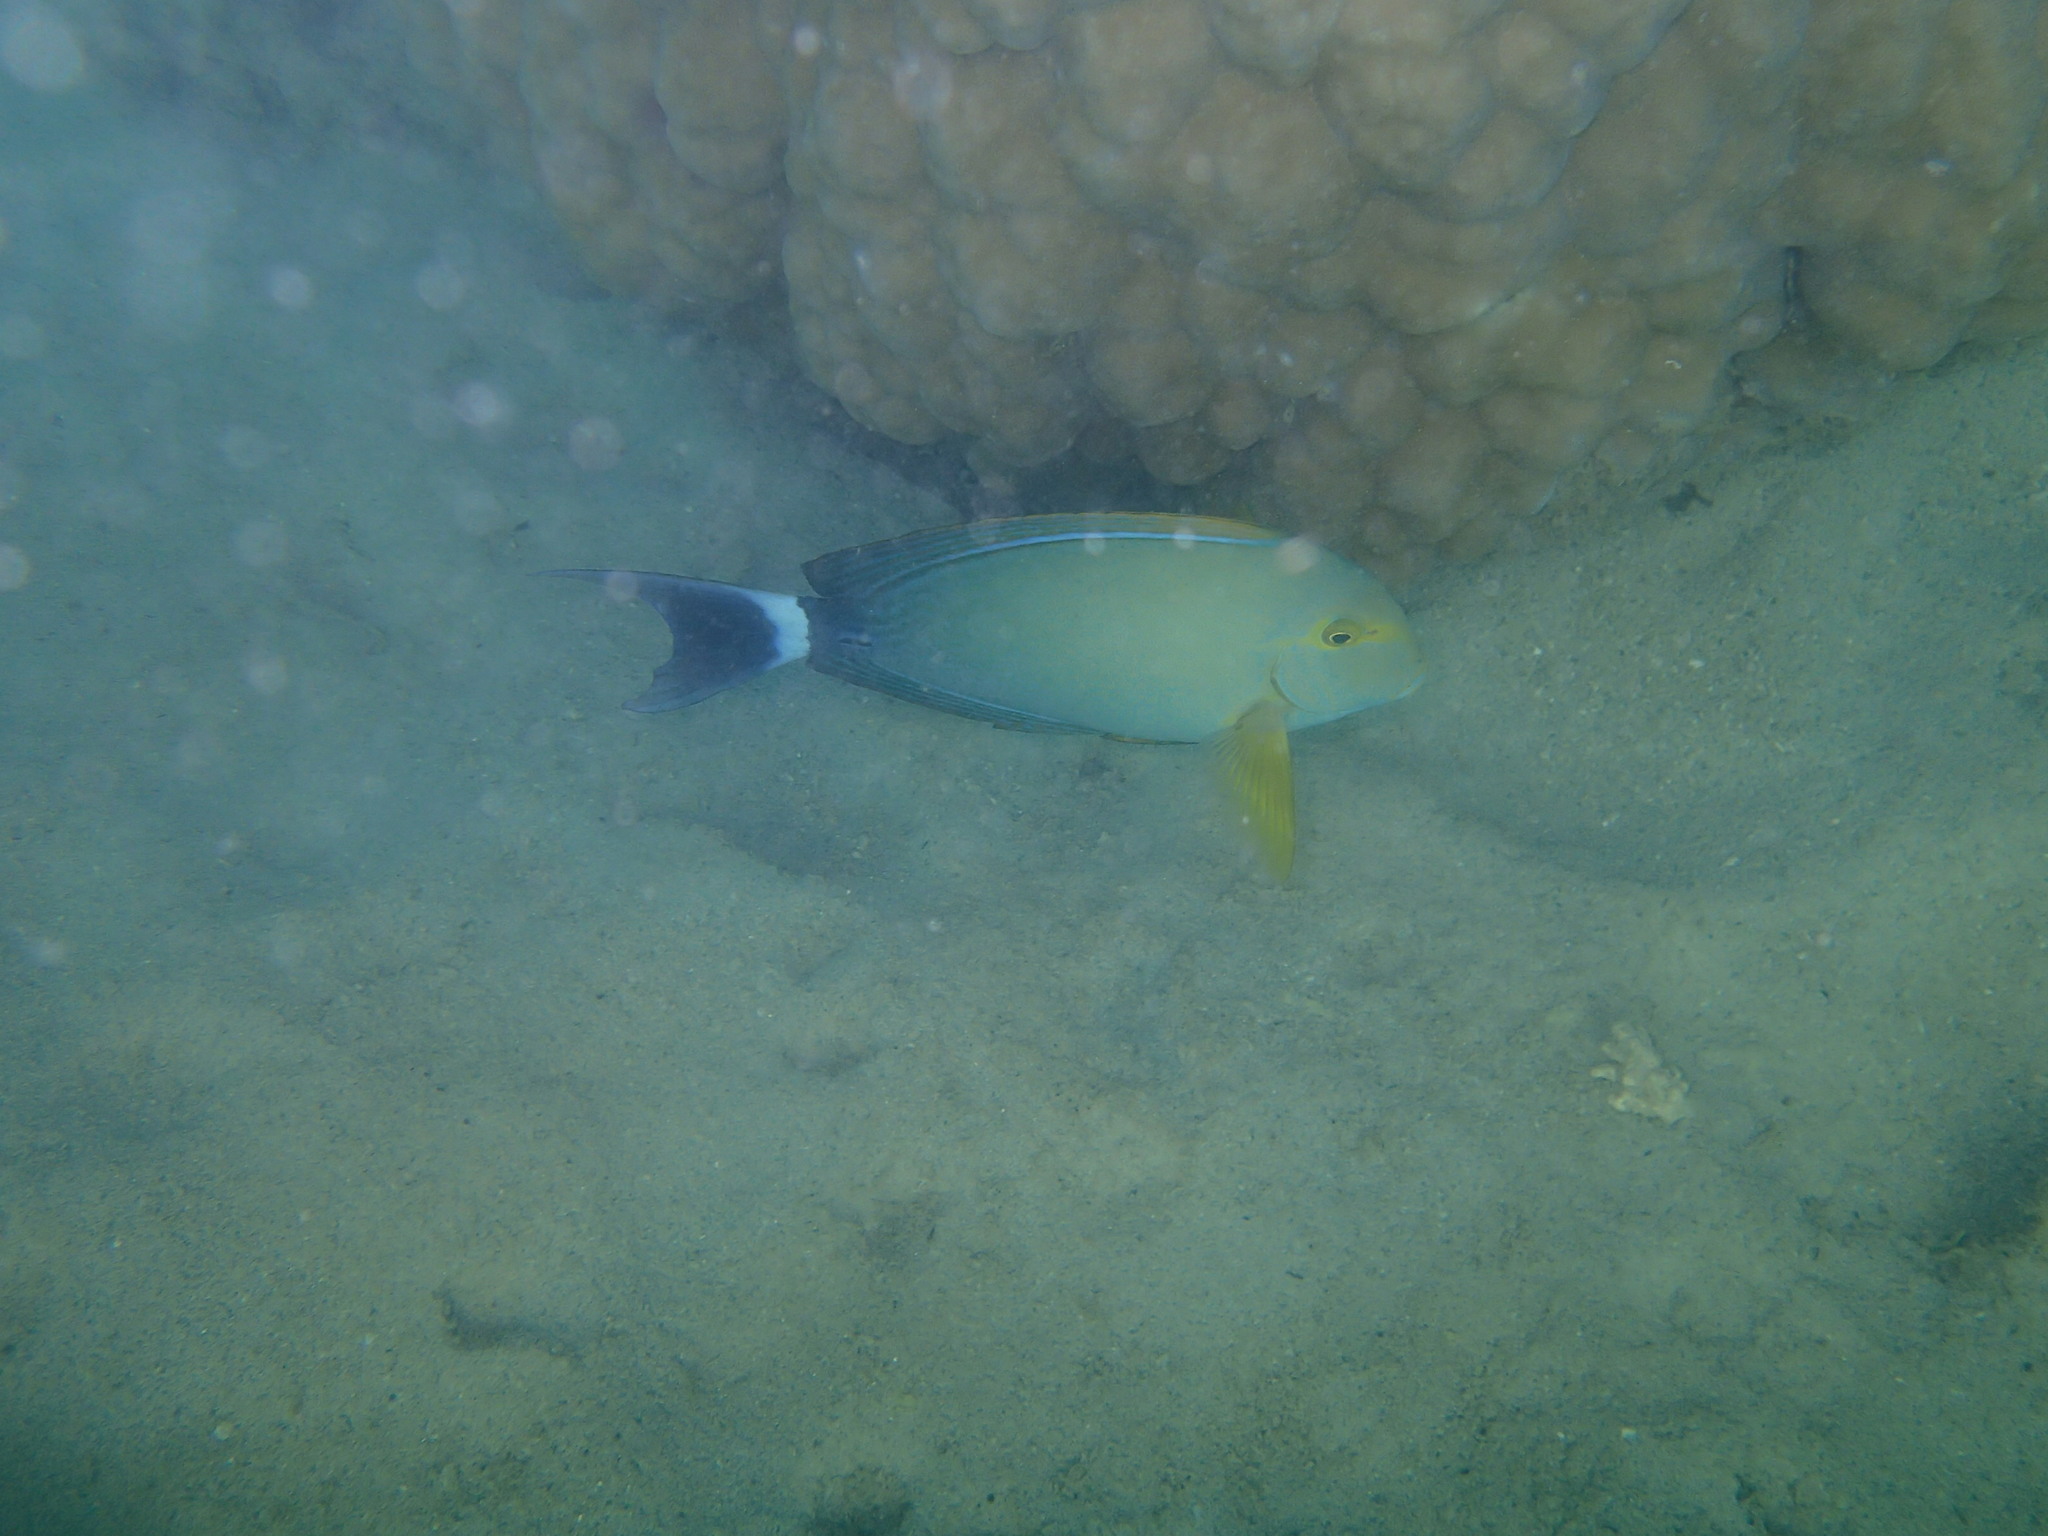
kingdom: Animalia
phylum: Chordata
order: Perciformes
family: Acanthuridae
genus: Acanthurus
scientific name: Acanthurus xanthopterus
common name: Cuvier's surgeonfish
